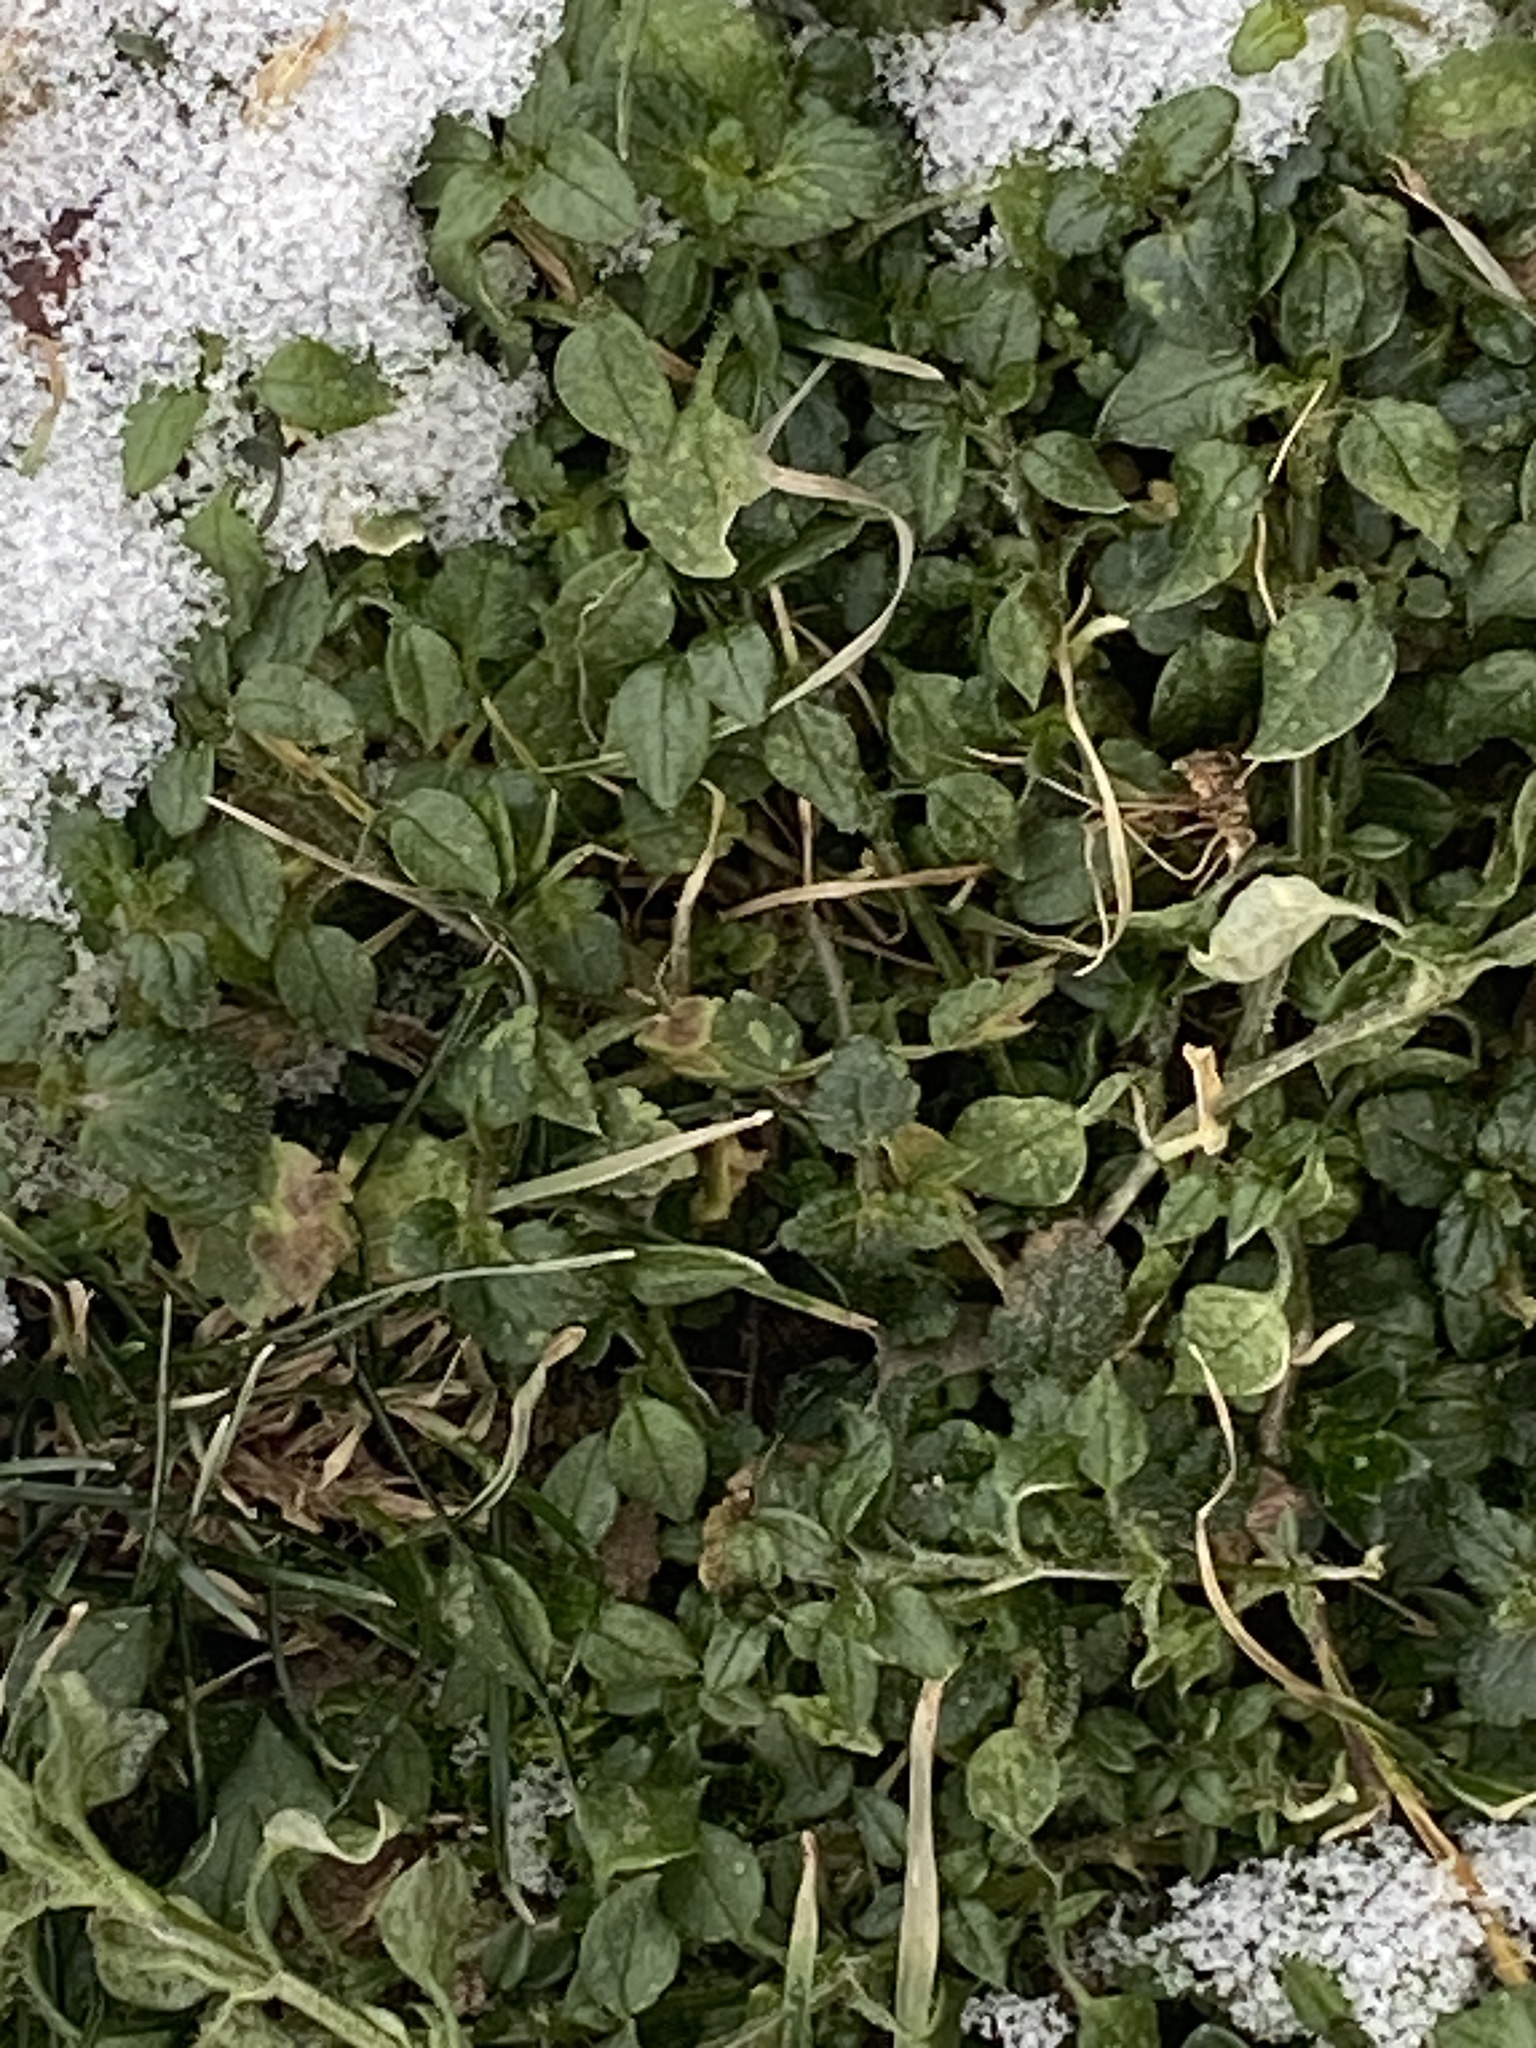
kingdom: Plantae
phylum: Tracheophyta
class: Magnoliopsida
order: Caryophyllales
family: Caryophyllaceae
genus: Stellaria
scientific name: Stellaria media
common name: Common chickweed
